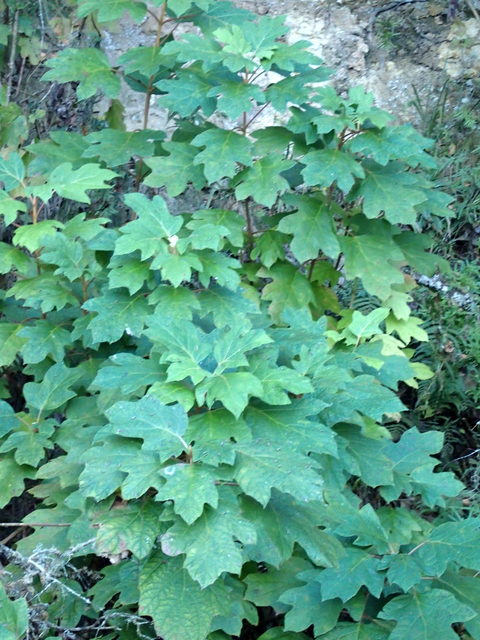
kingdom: Plantae
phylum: Tracheophyta
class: Magnoliopsida
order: Cornales
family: Hydrangeaceae
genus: Hydrangea
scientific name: Hydrangea quercifolia
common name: Oak-leaf hydrangea
